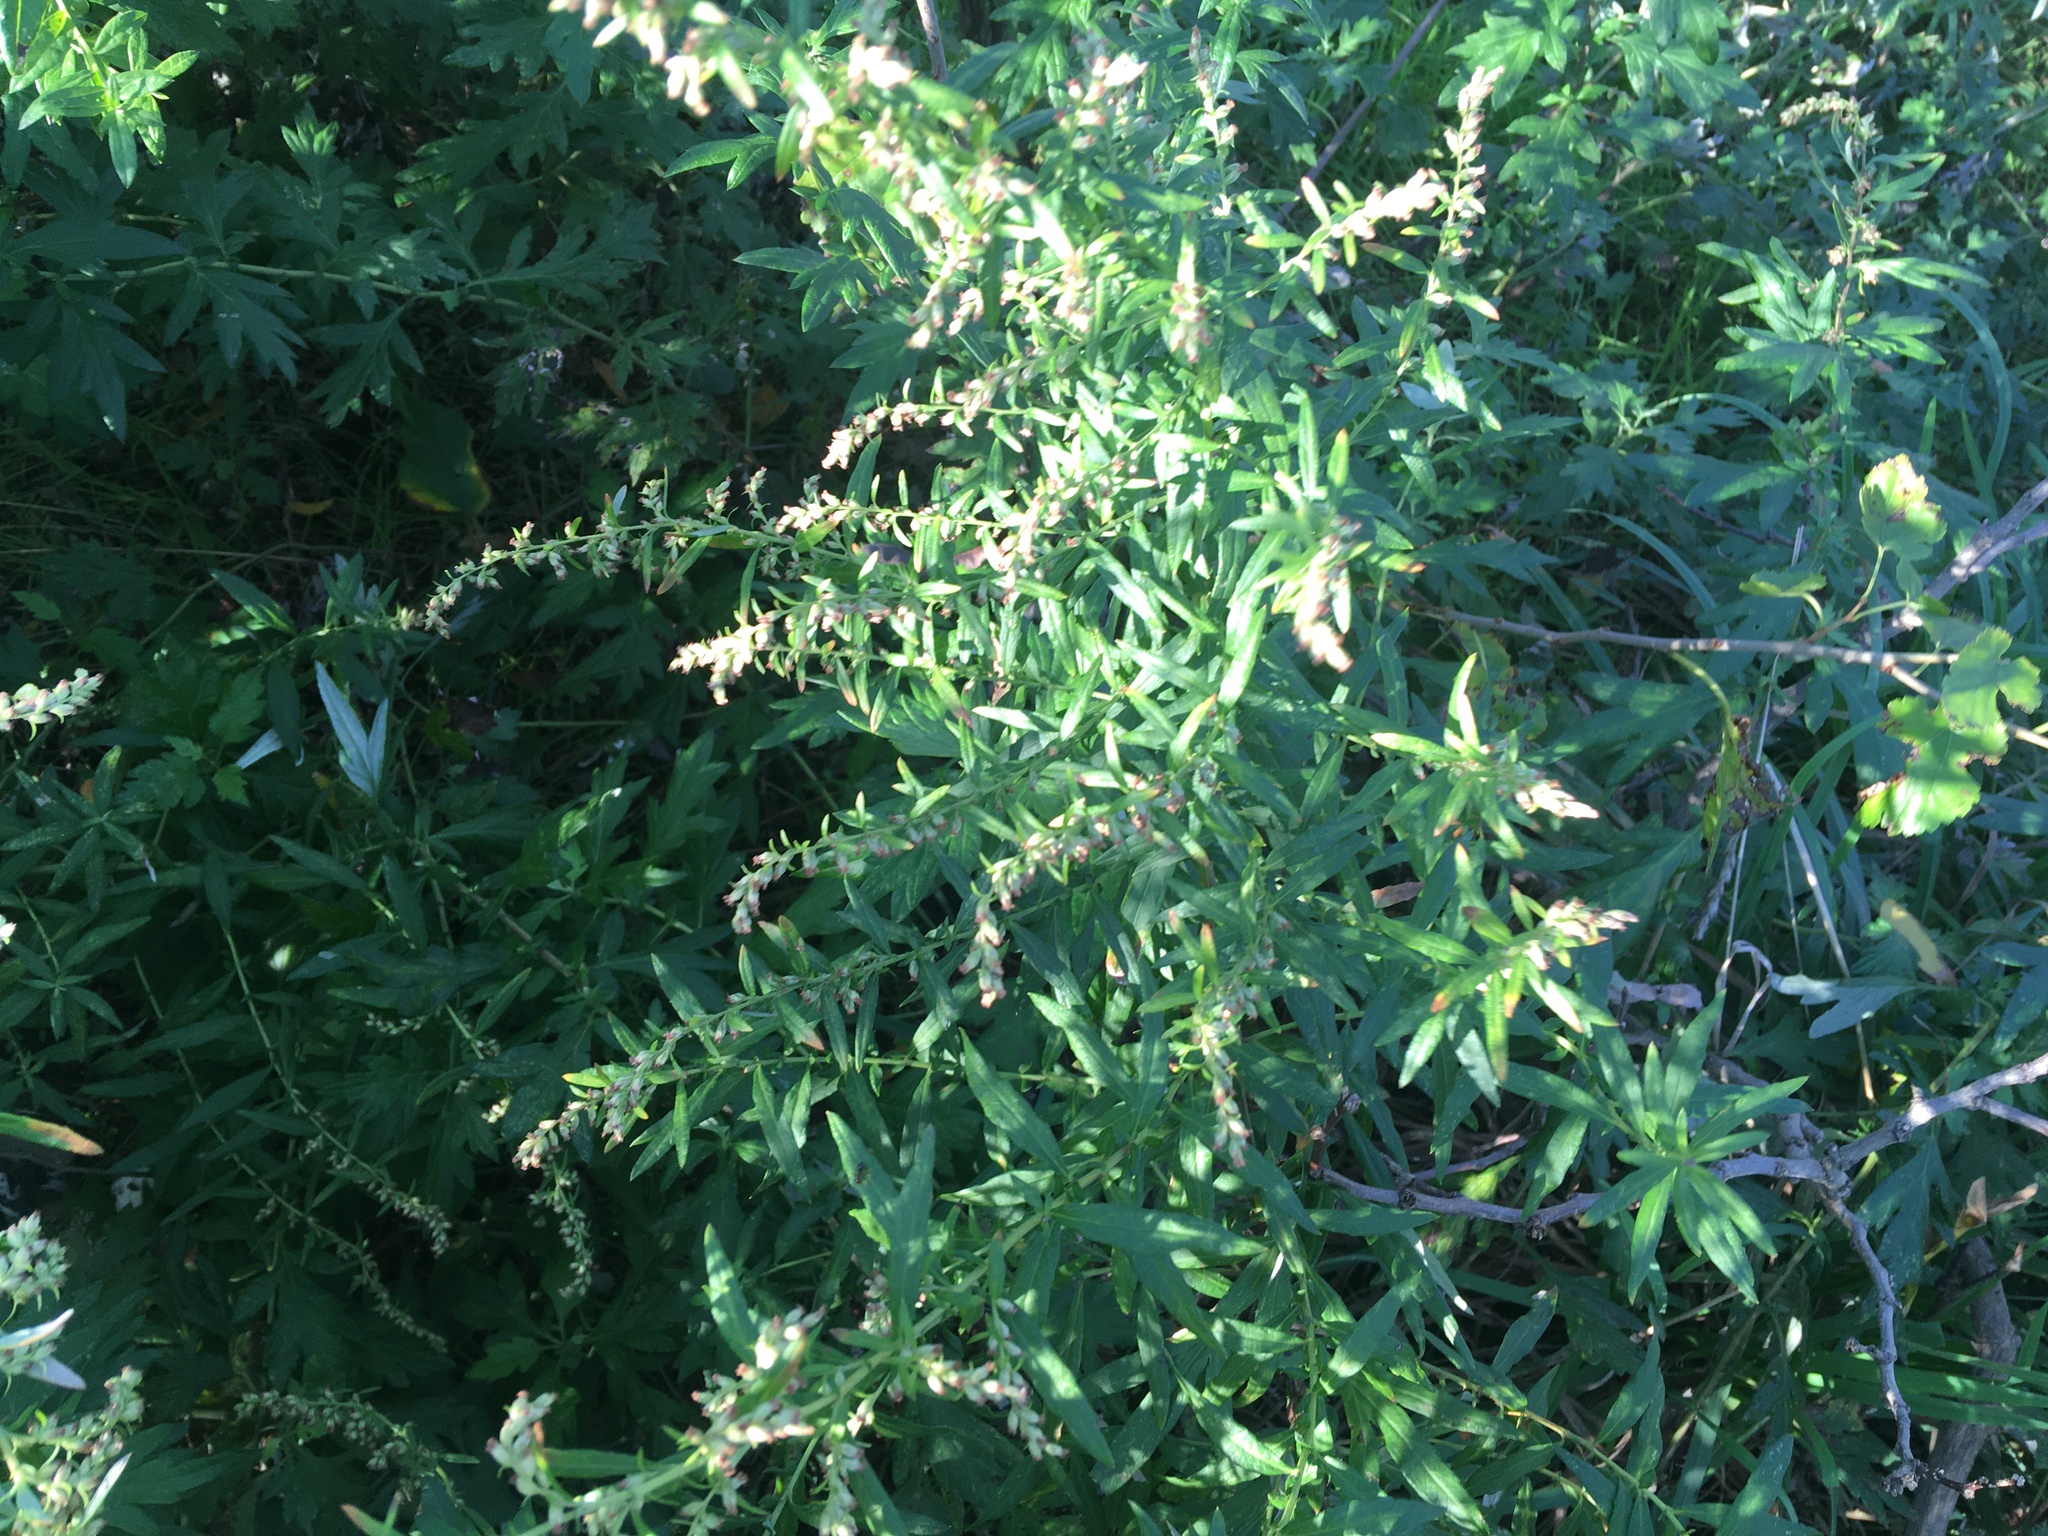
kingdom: Plantae
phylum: Tracheophyta
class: Magnoliopsida
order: Asterales
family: Asteraceae
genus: Artemisia
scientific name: Artemisia vulgaris
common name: Mugwort
